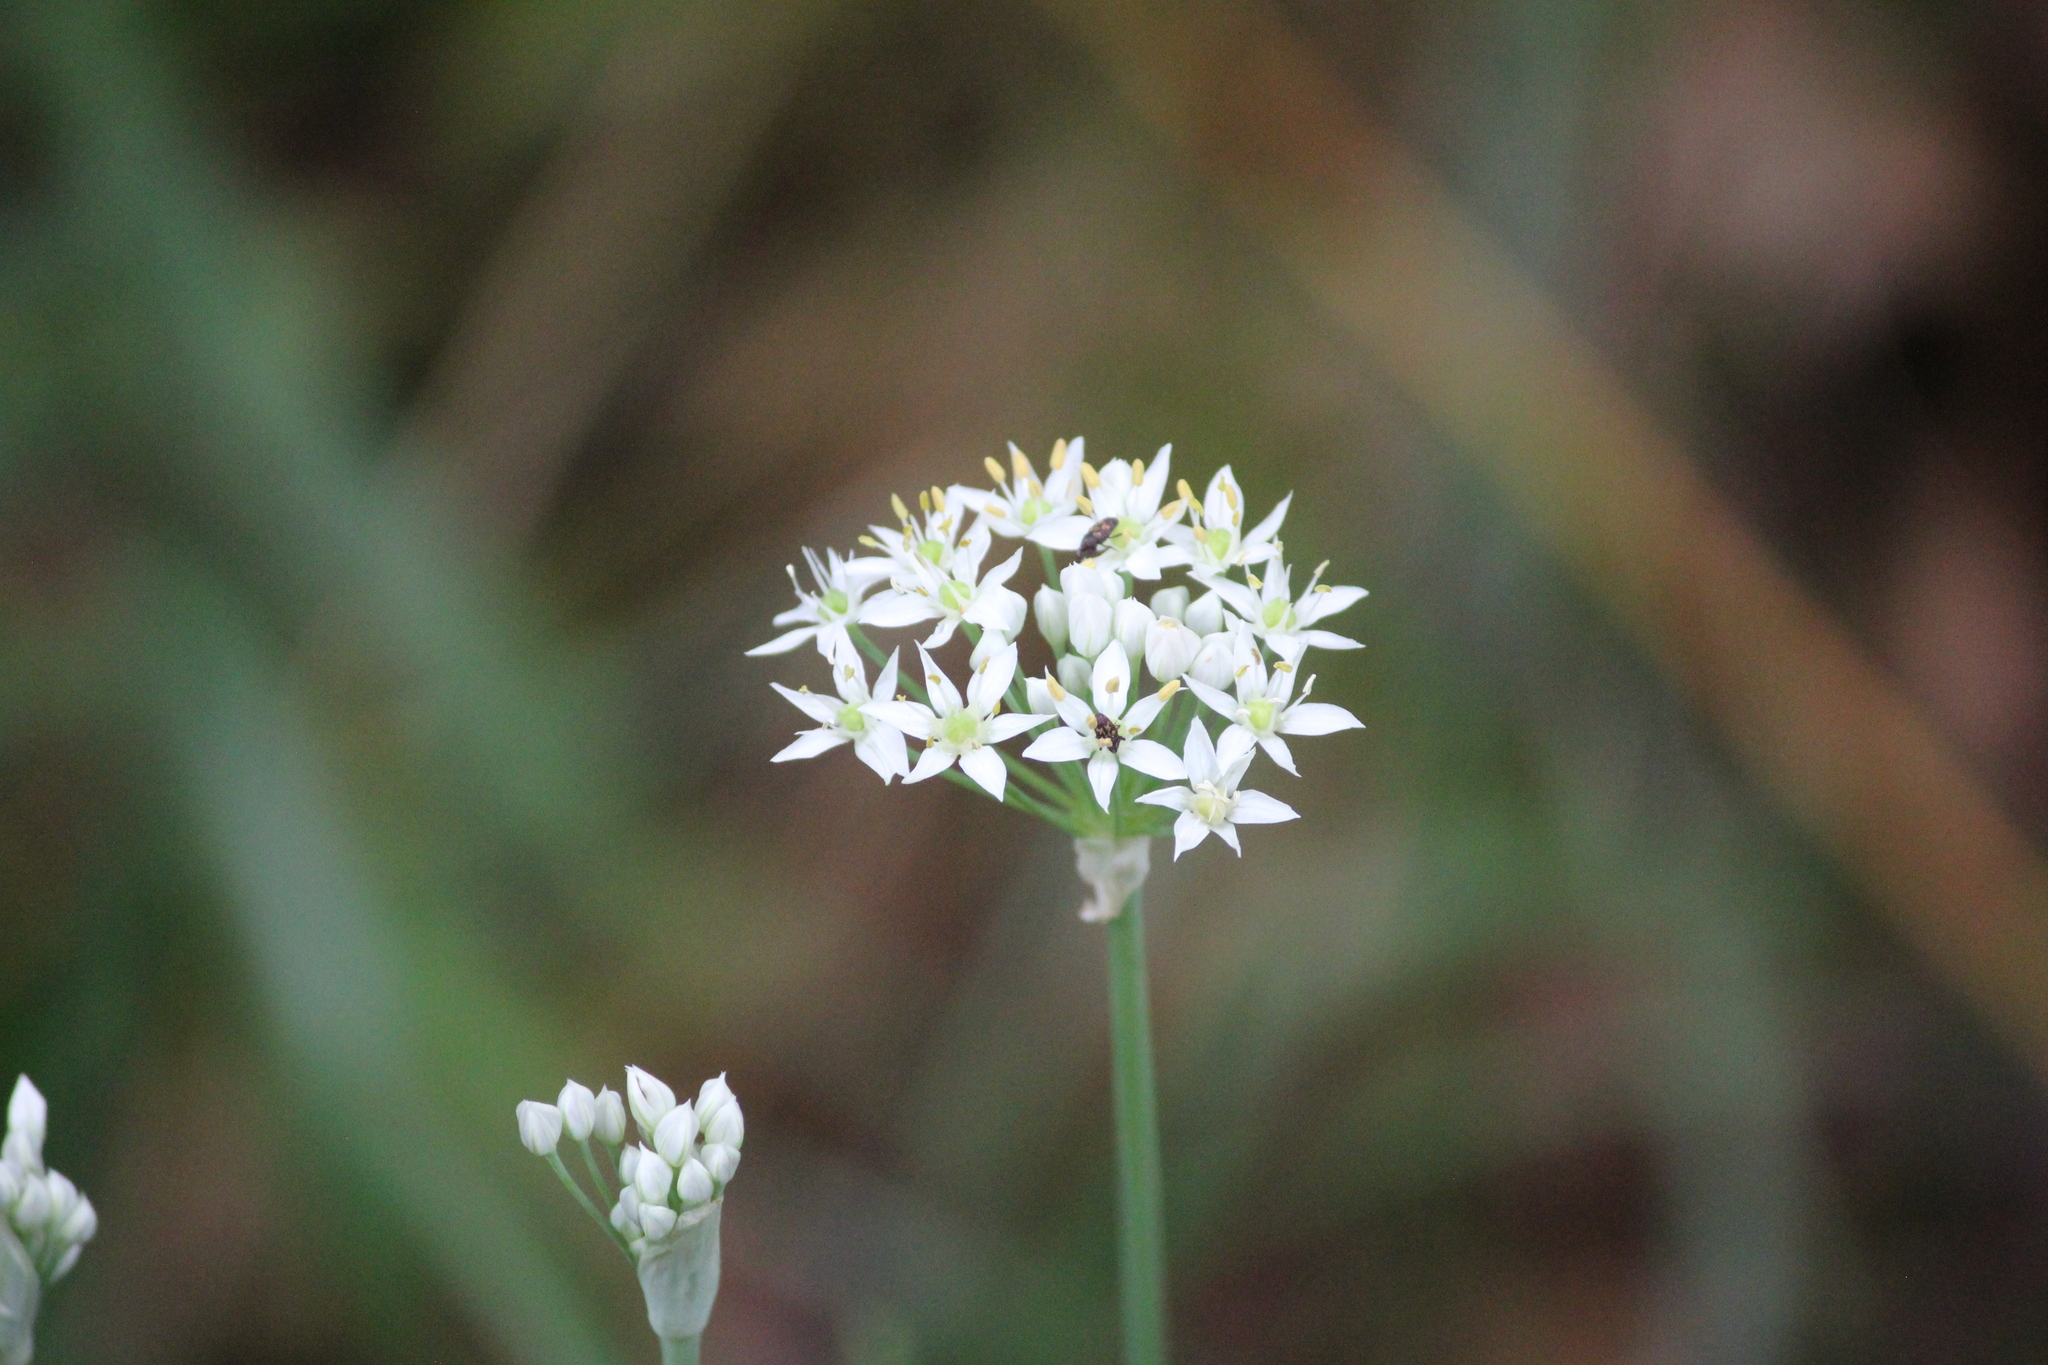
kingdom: Plantae
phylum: Tracheophyta
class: Liliopsida
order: Asparagales
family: Amaryllidaceae
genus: Allium
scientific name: Allium tuberosum
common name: Chinese chives
